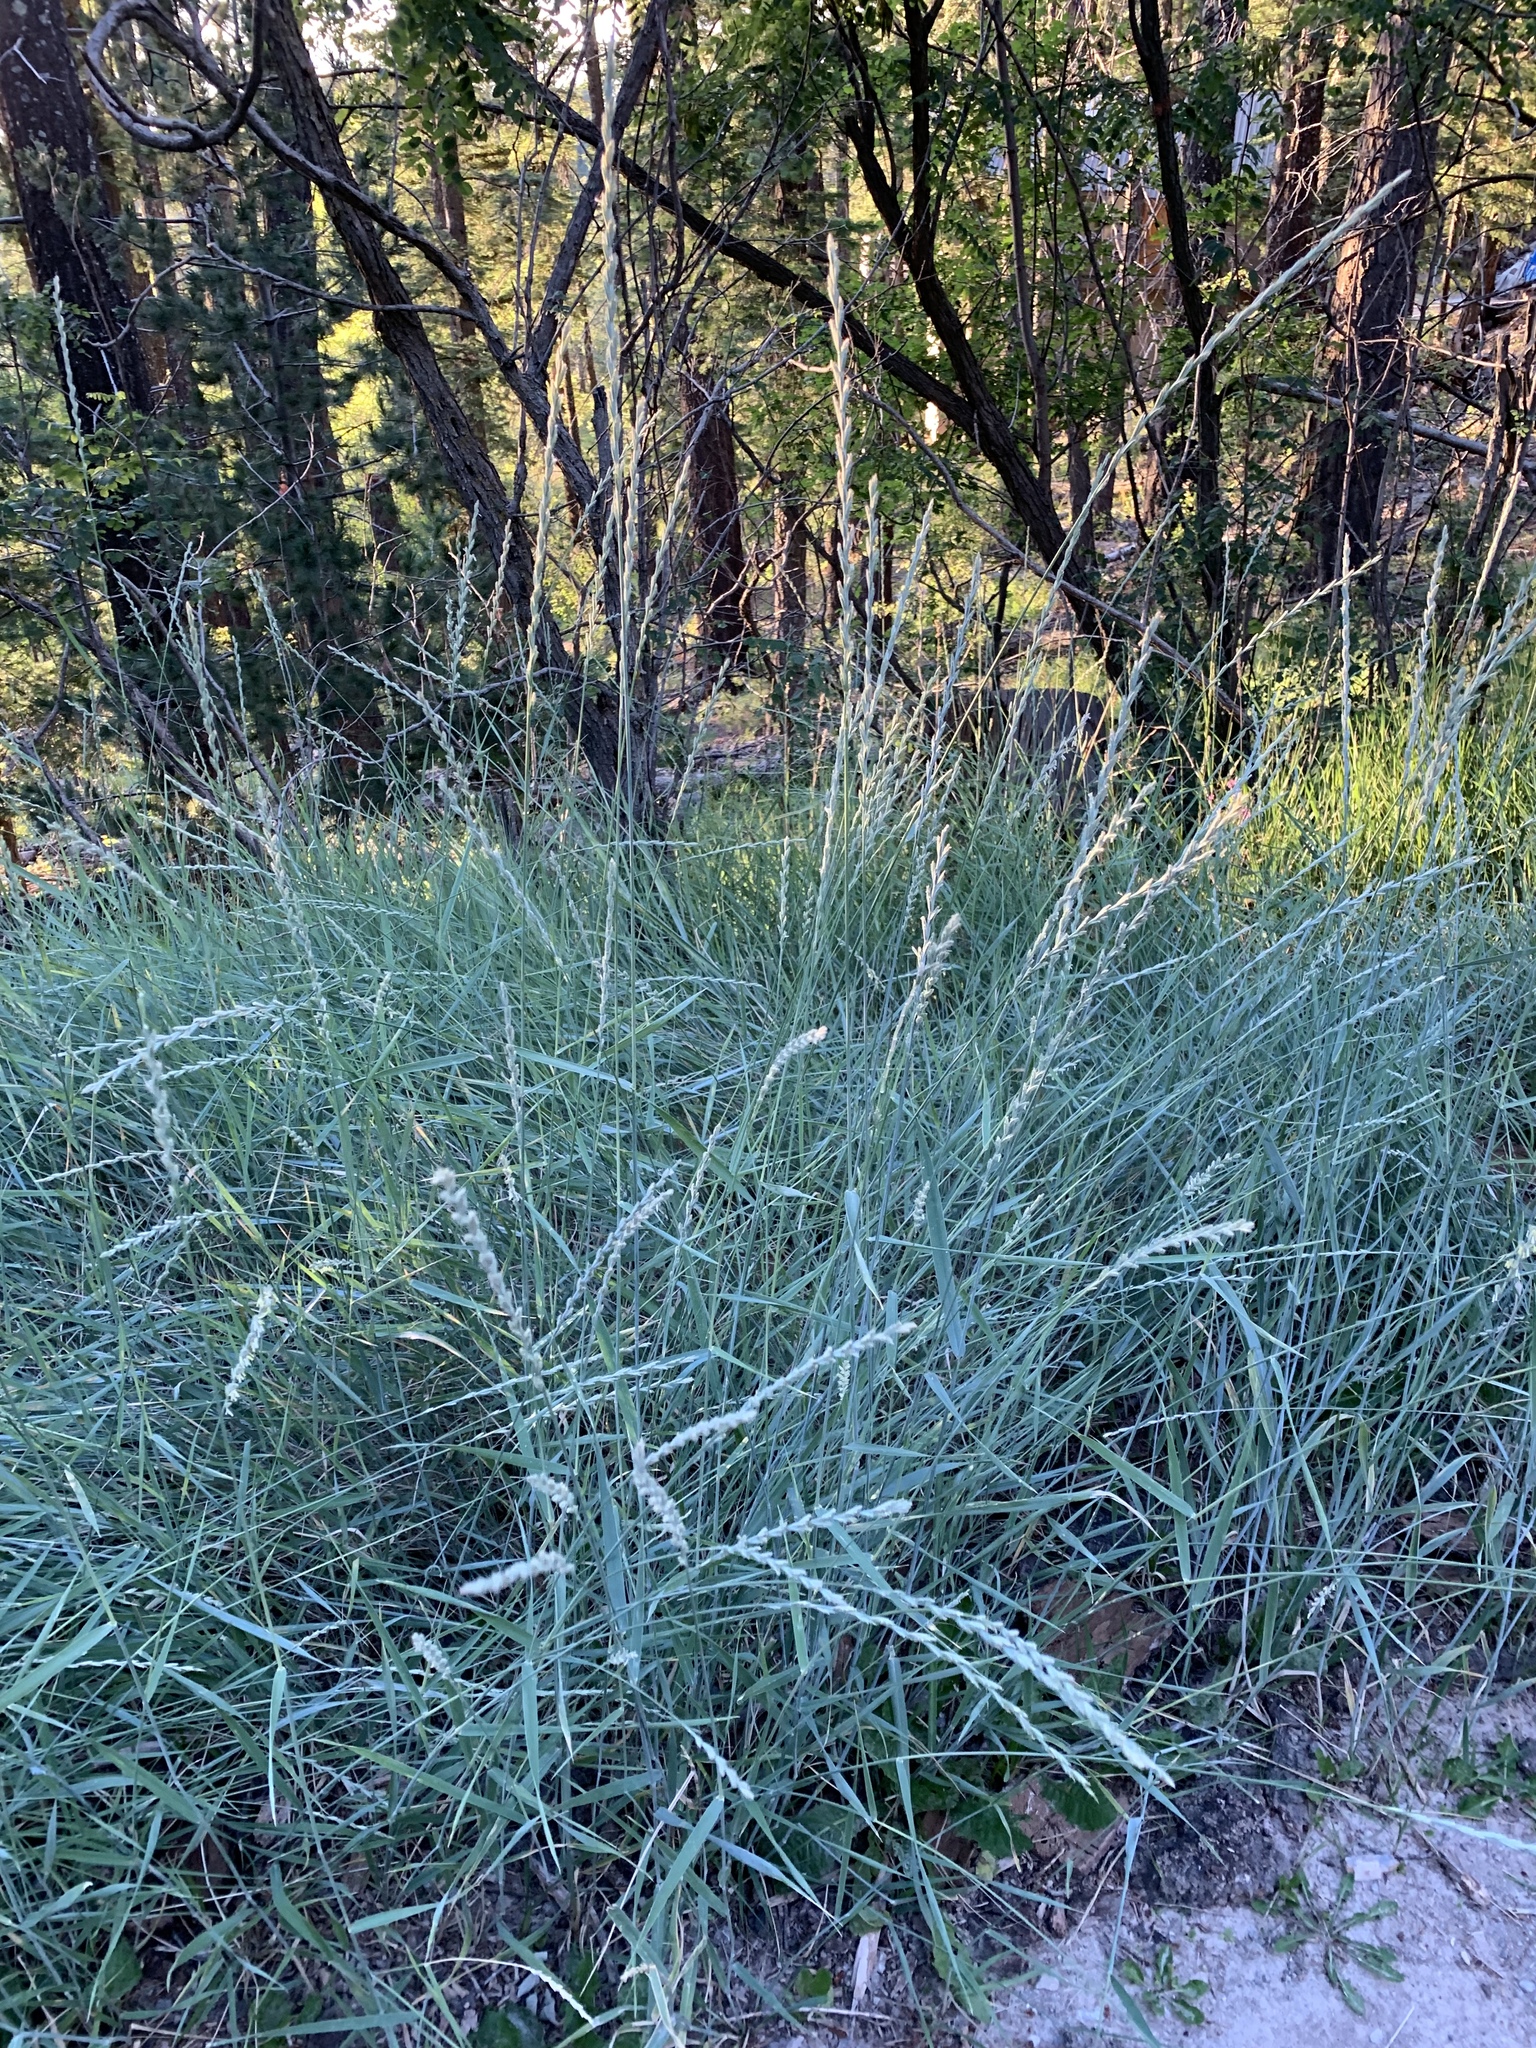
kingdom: Plantae
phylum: Tracheophyta
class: Liliopsida
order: Poales
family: Poaceae
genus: Thinopyrum
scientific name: Thinopyrum intermedium
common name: Intermediate wheatgrass
